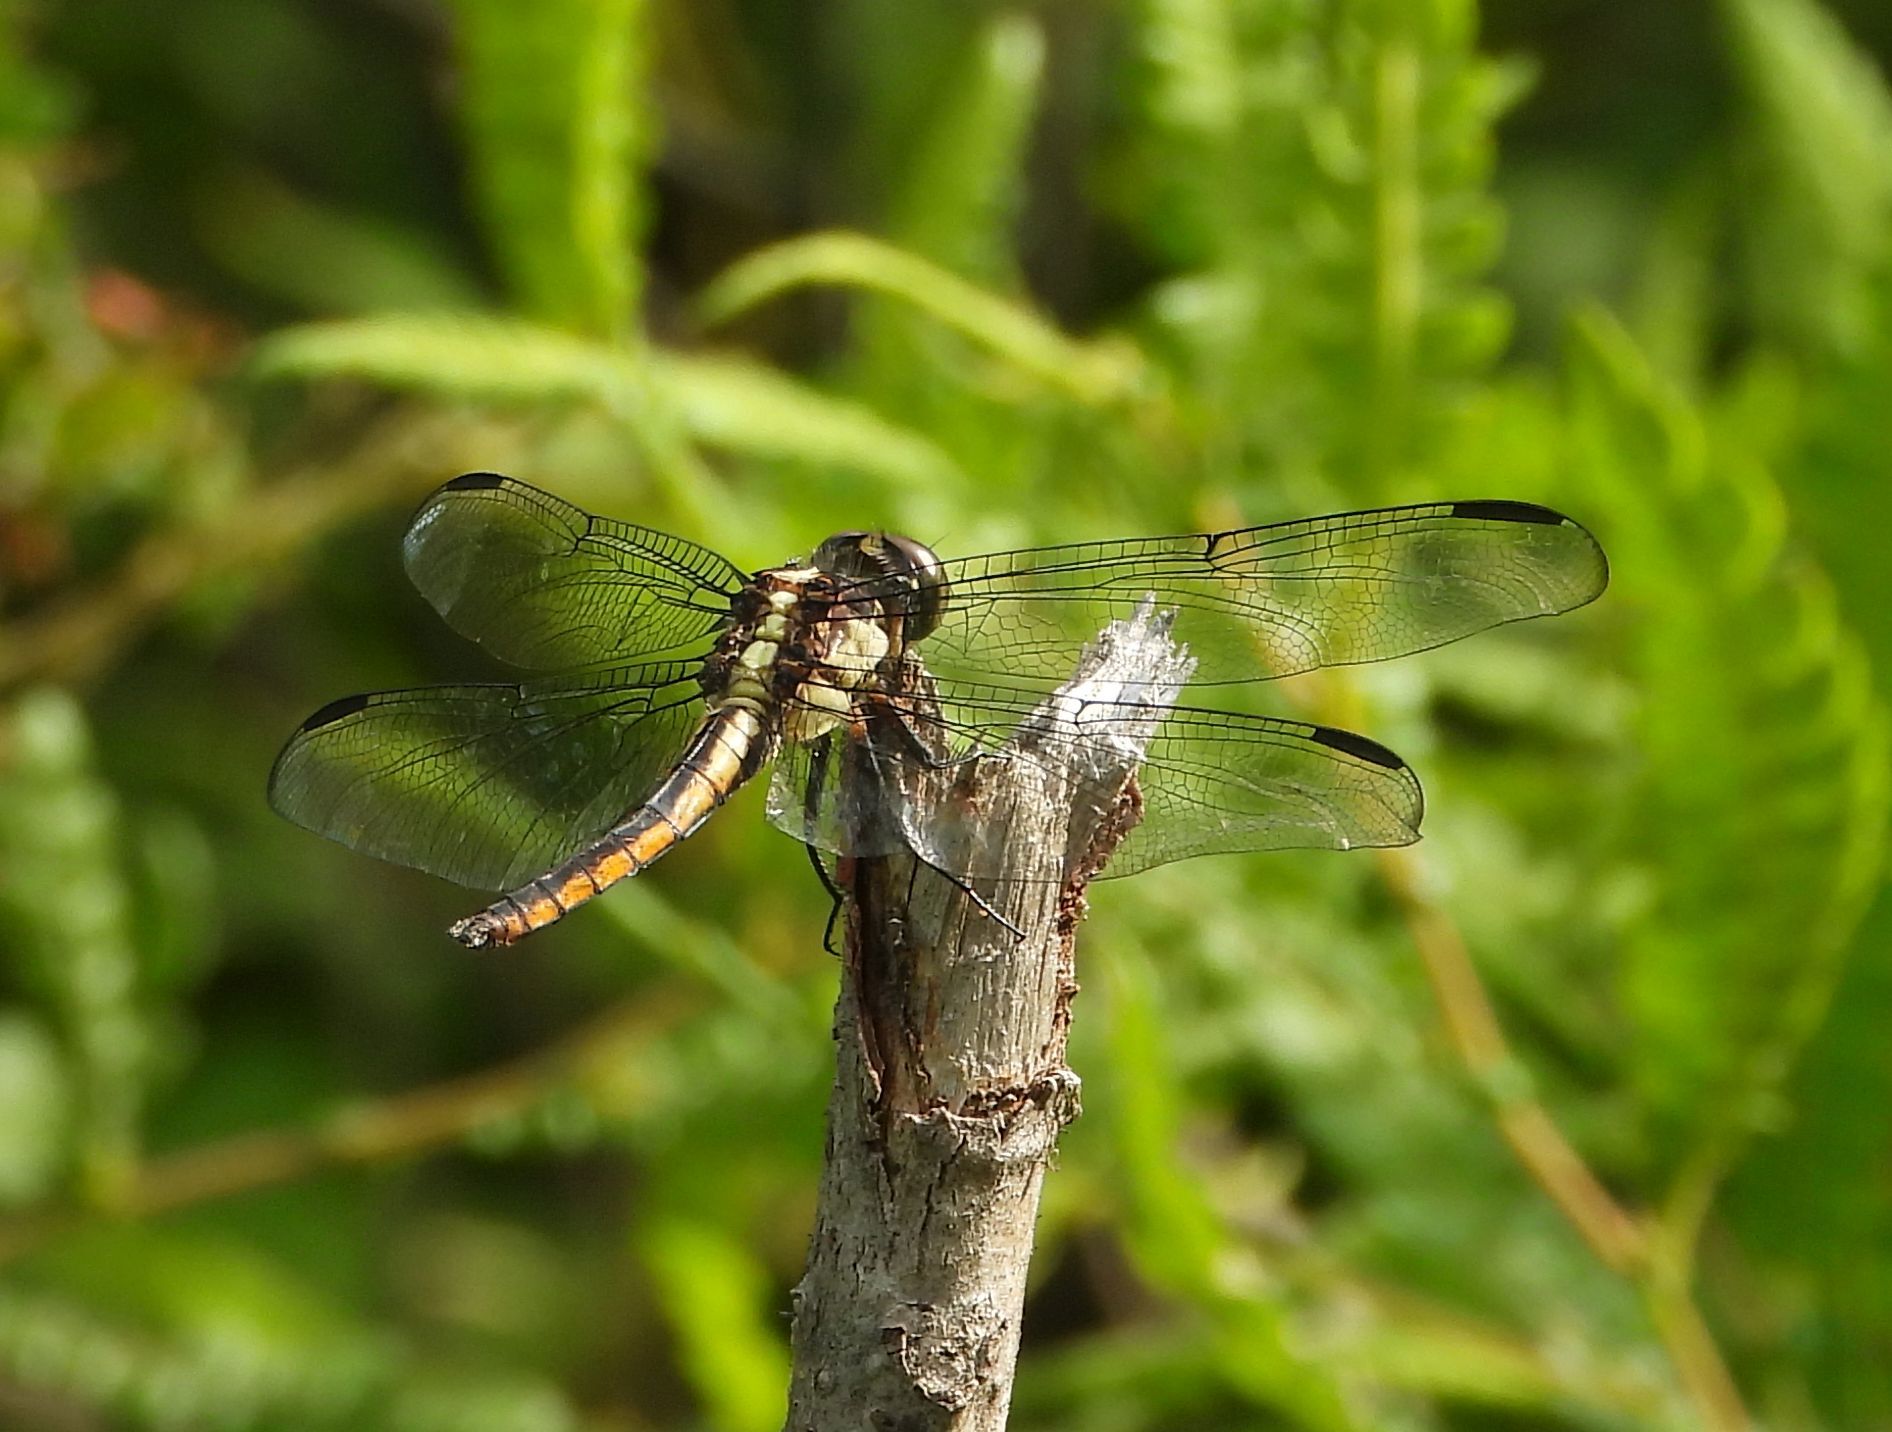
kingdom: Animalia
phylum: Arthropoda
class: Insecta
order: Odonata
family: Libellulidae
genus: Libellula
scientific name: Libellula incesta
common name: Slaty skimmer
